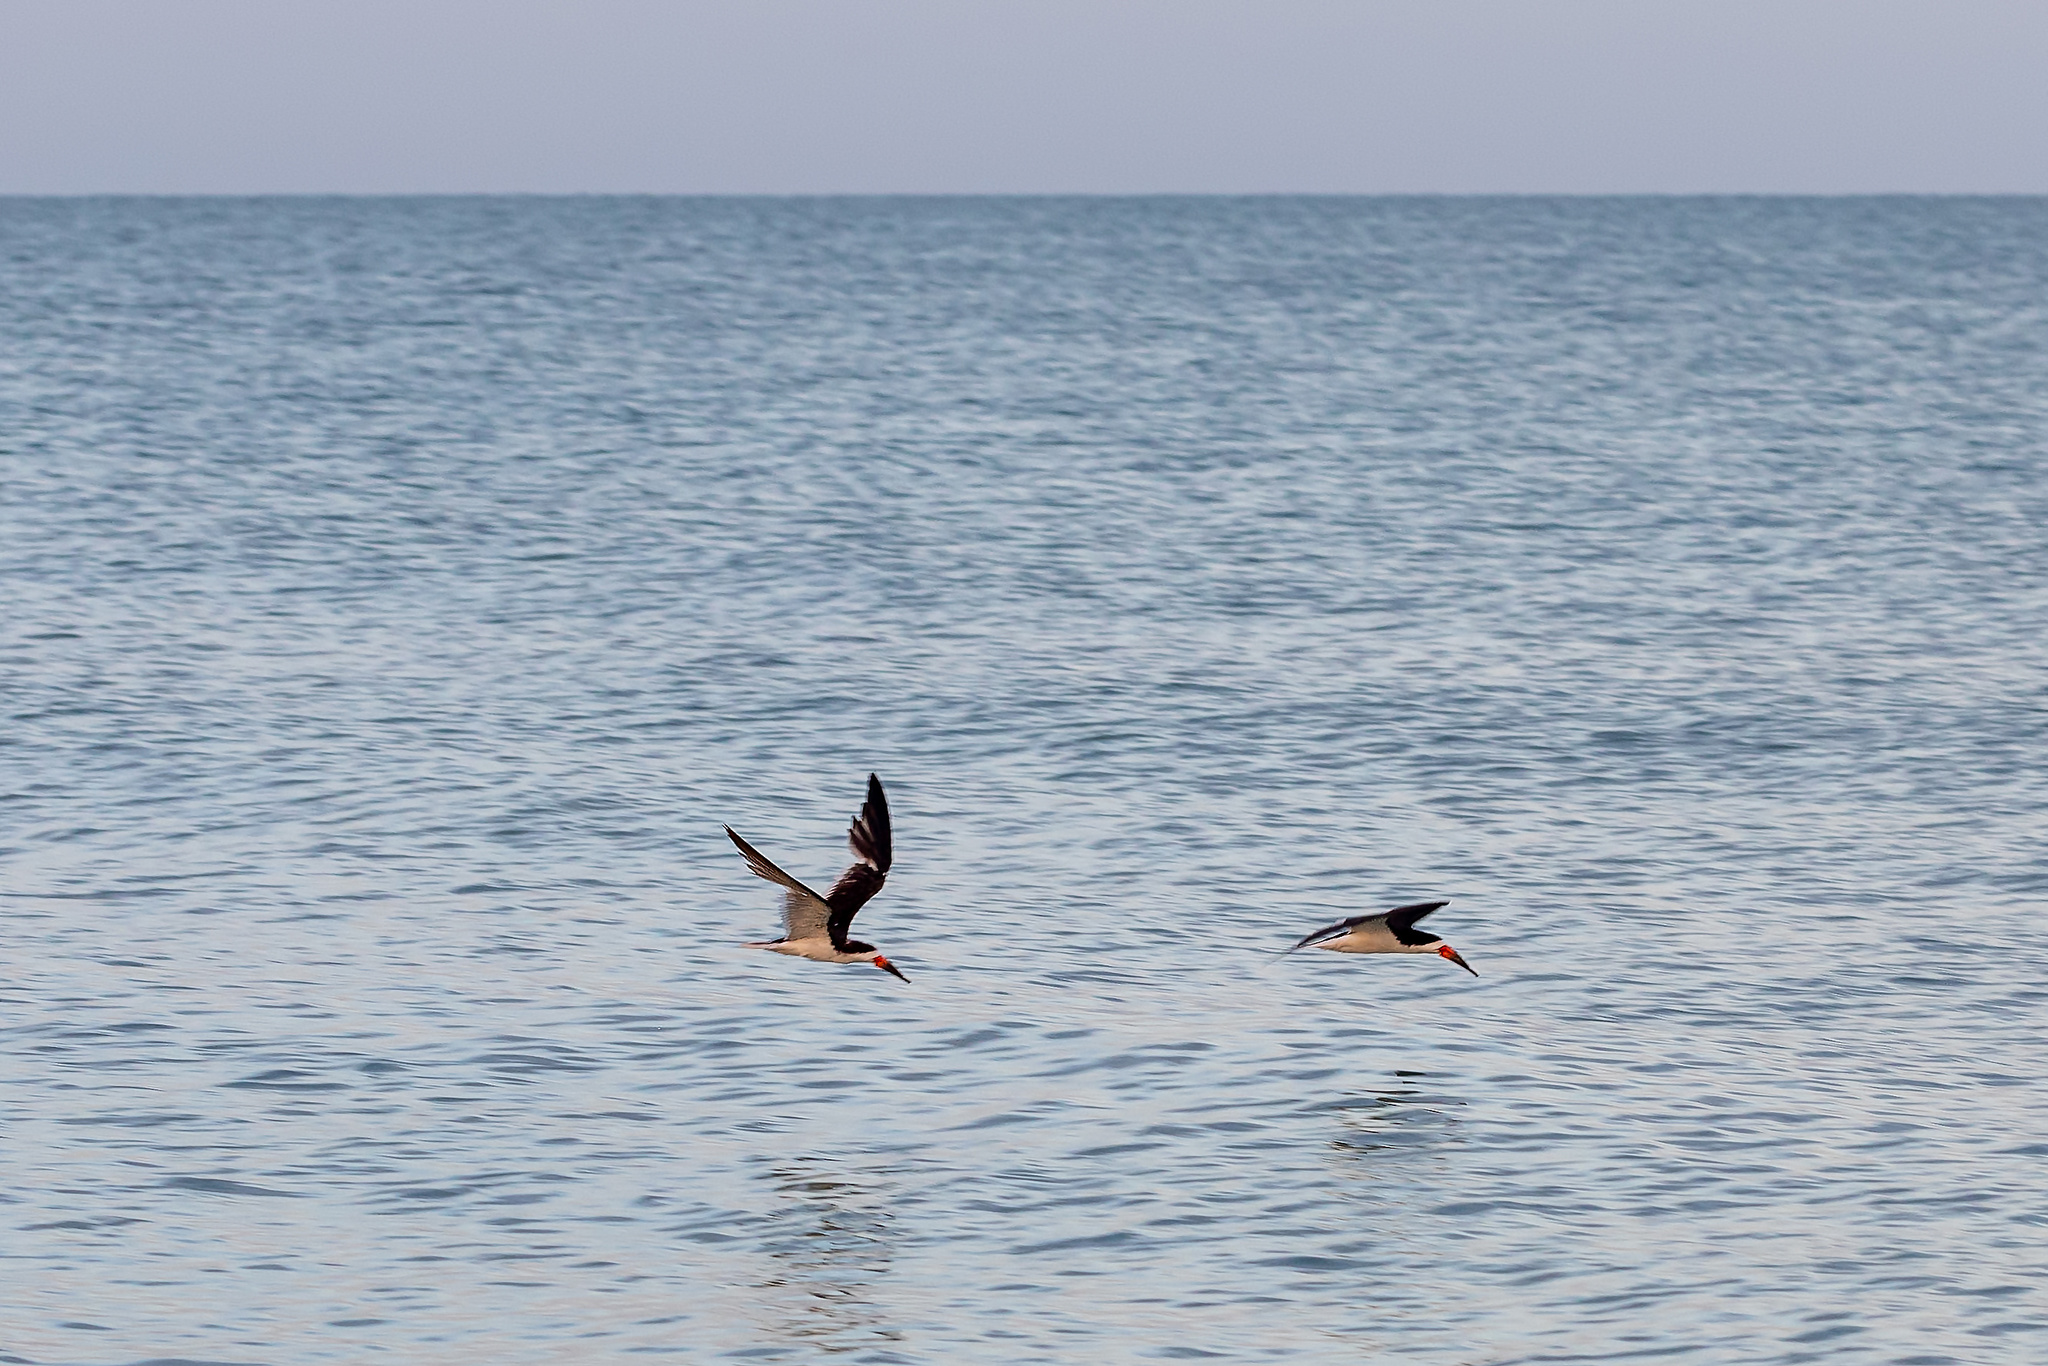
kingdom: Animalia
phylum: Chordata
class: Aves
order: Charadriiformes
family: Laridae
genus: Rynchops
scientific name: Rynchops niger
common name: Black skimmer
